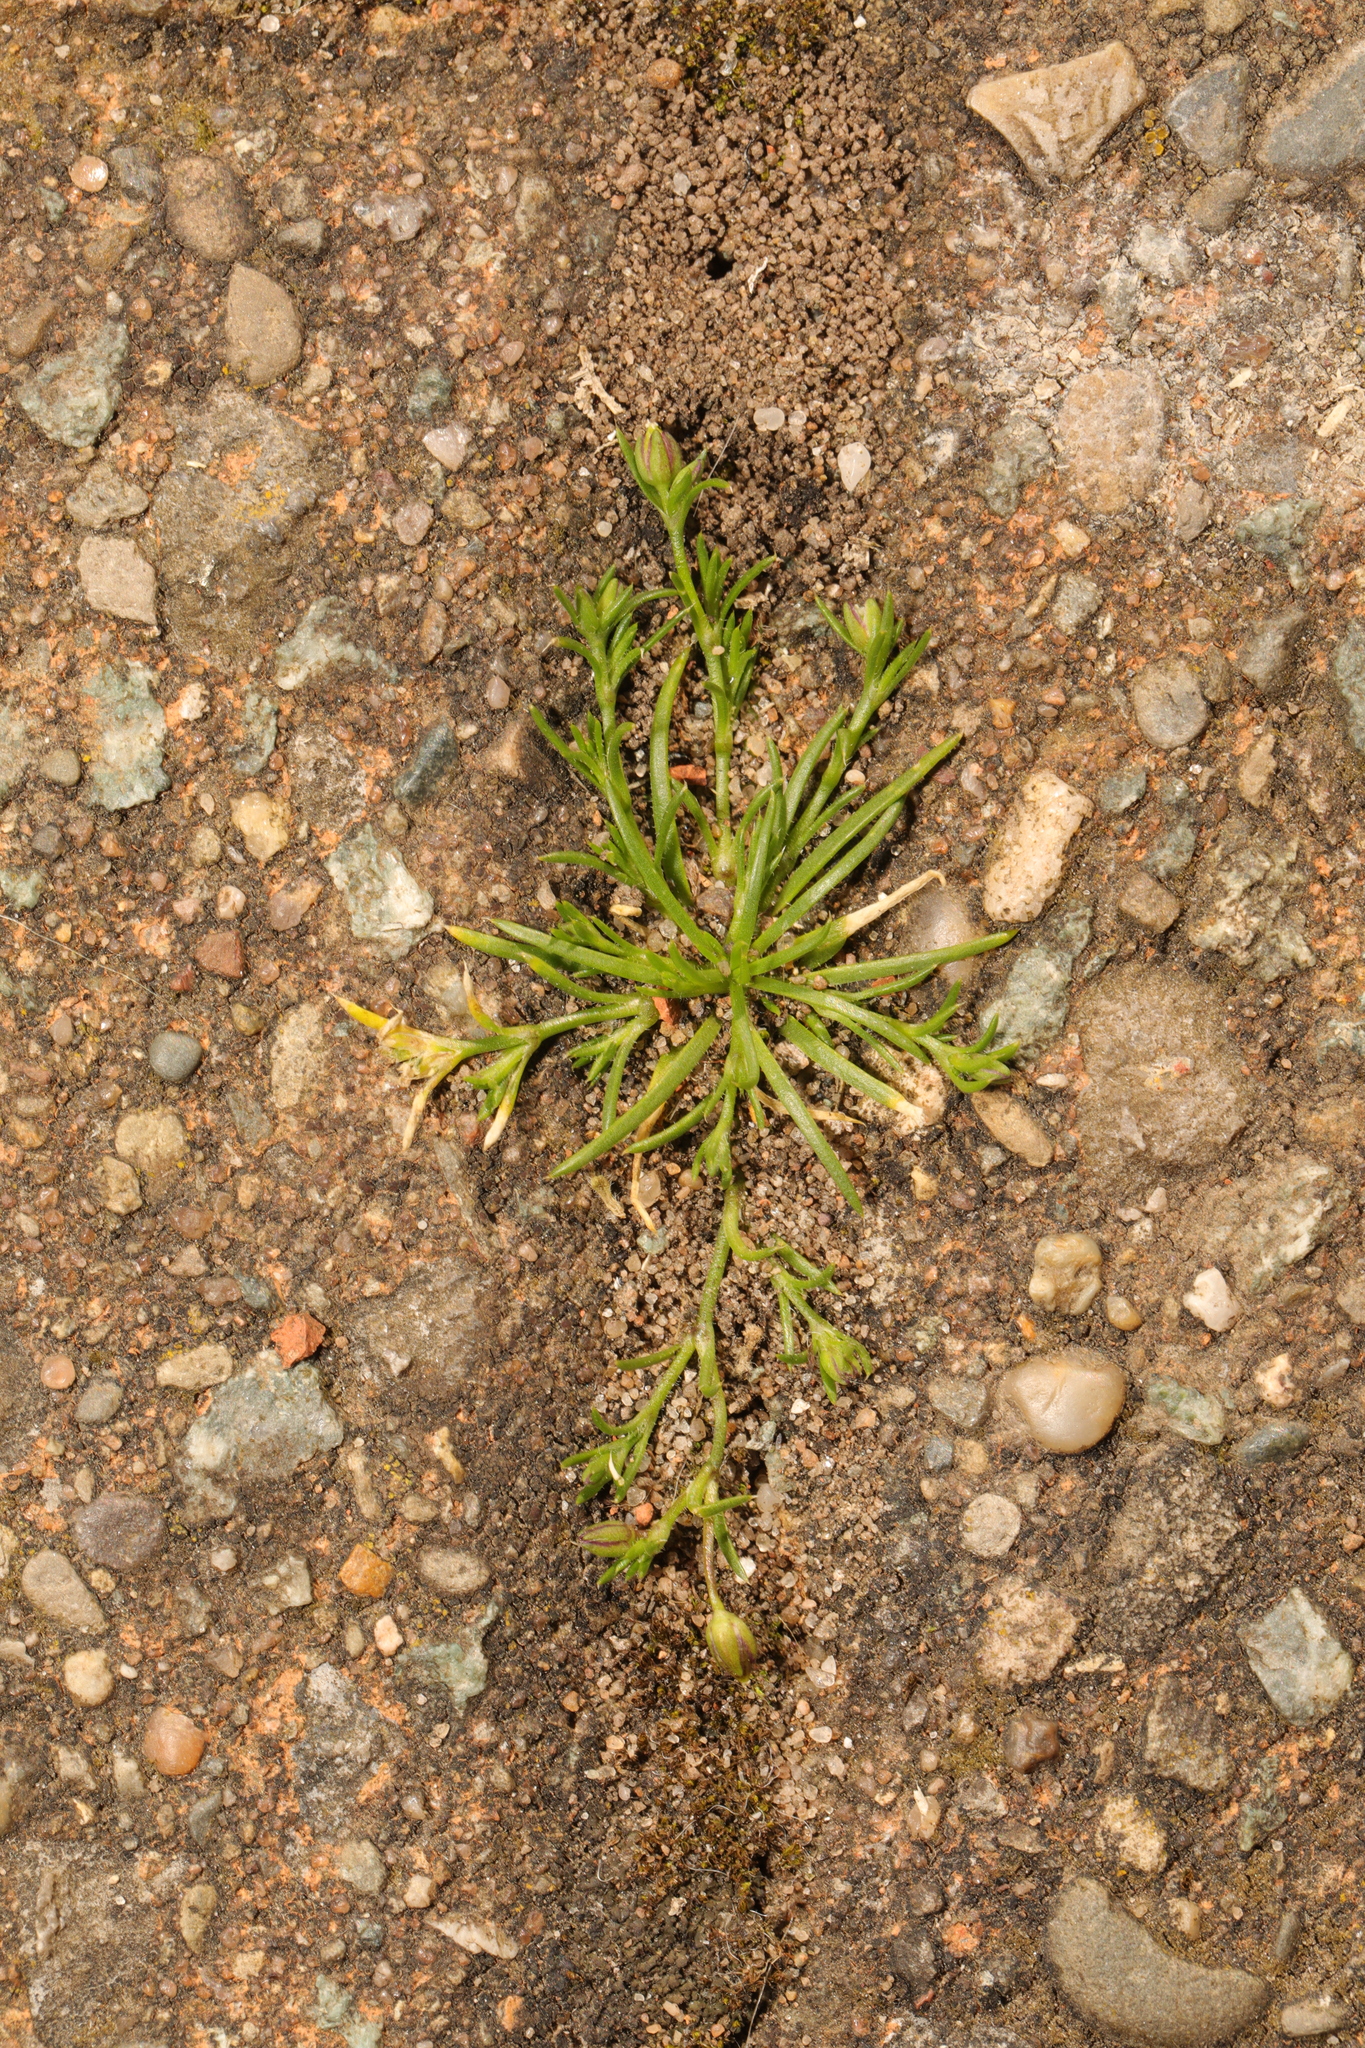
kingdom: Plantae
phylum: Tracheophyta
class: Magnoliopsida
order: Caryophyllales
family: Caryophyllaceae
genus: Sagina
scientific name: Sagina procumbens
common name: Procumbent pearlwort
